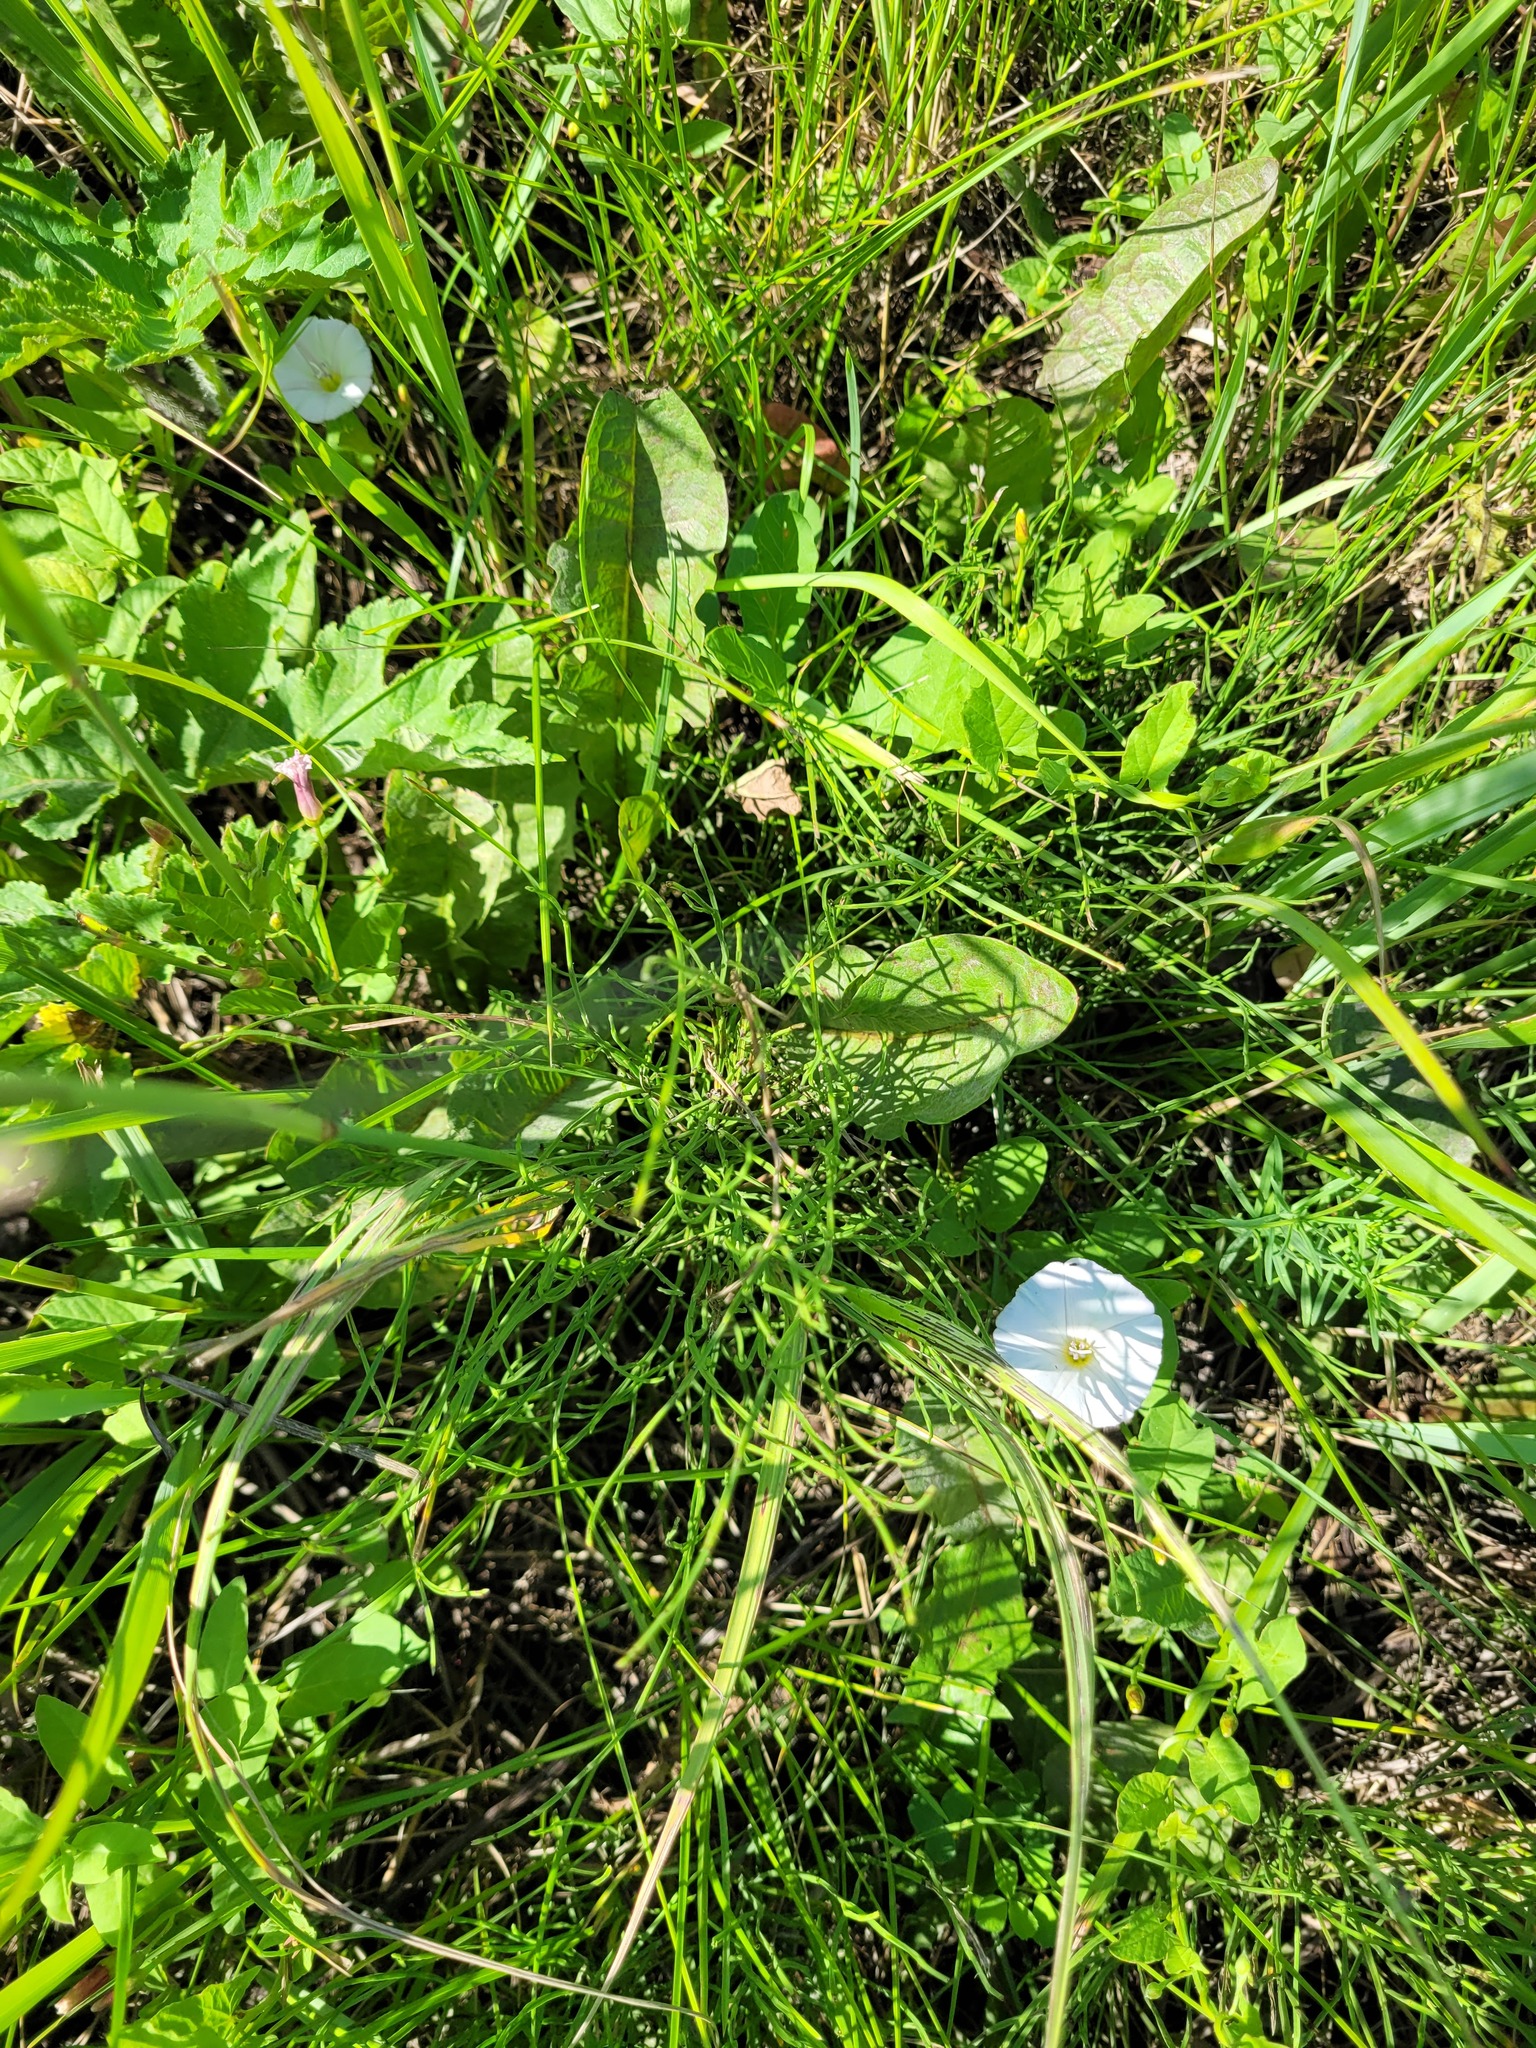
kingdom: Plantae
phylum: Tracheophyta
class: Polypodiopsida
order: Equisetales
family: Equisetaceae
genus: Equisetum
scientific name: Equisetum arvense
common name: Field horsetail
